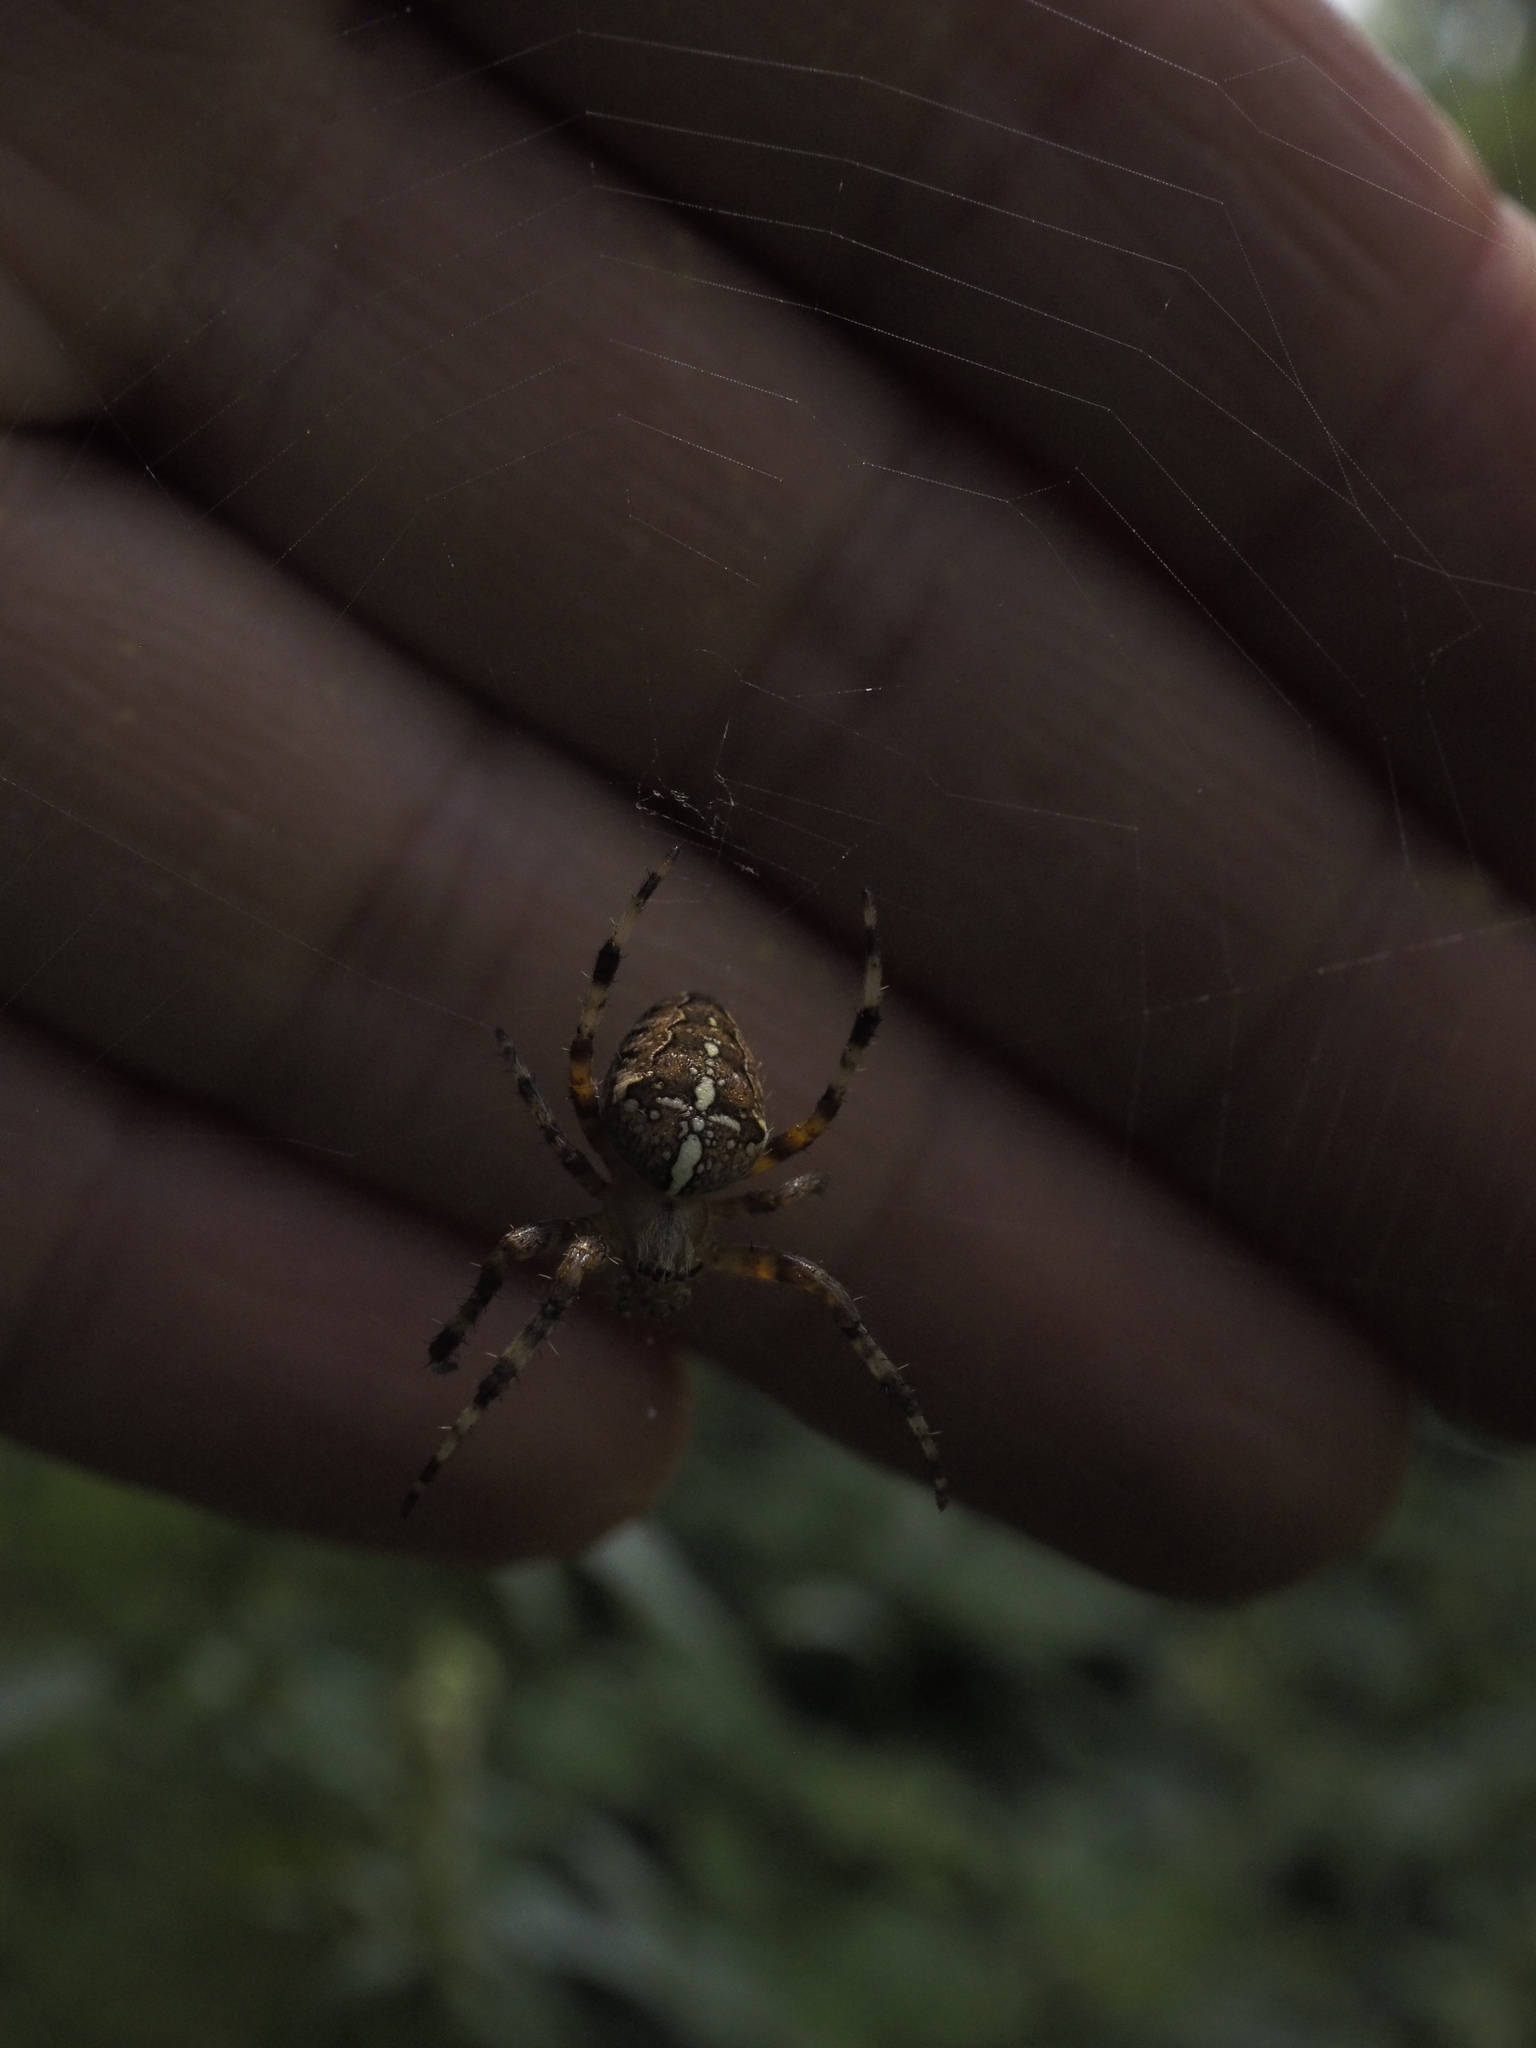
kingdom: Animalia
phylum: Arthropoda
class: Arachnida
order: Araneae
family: Araneidae
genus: Araneus
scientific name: Araneus diadematus
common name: Cross orbweaver
